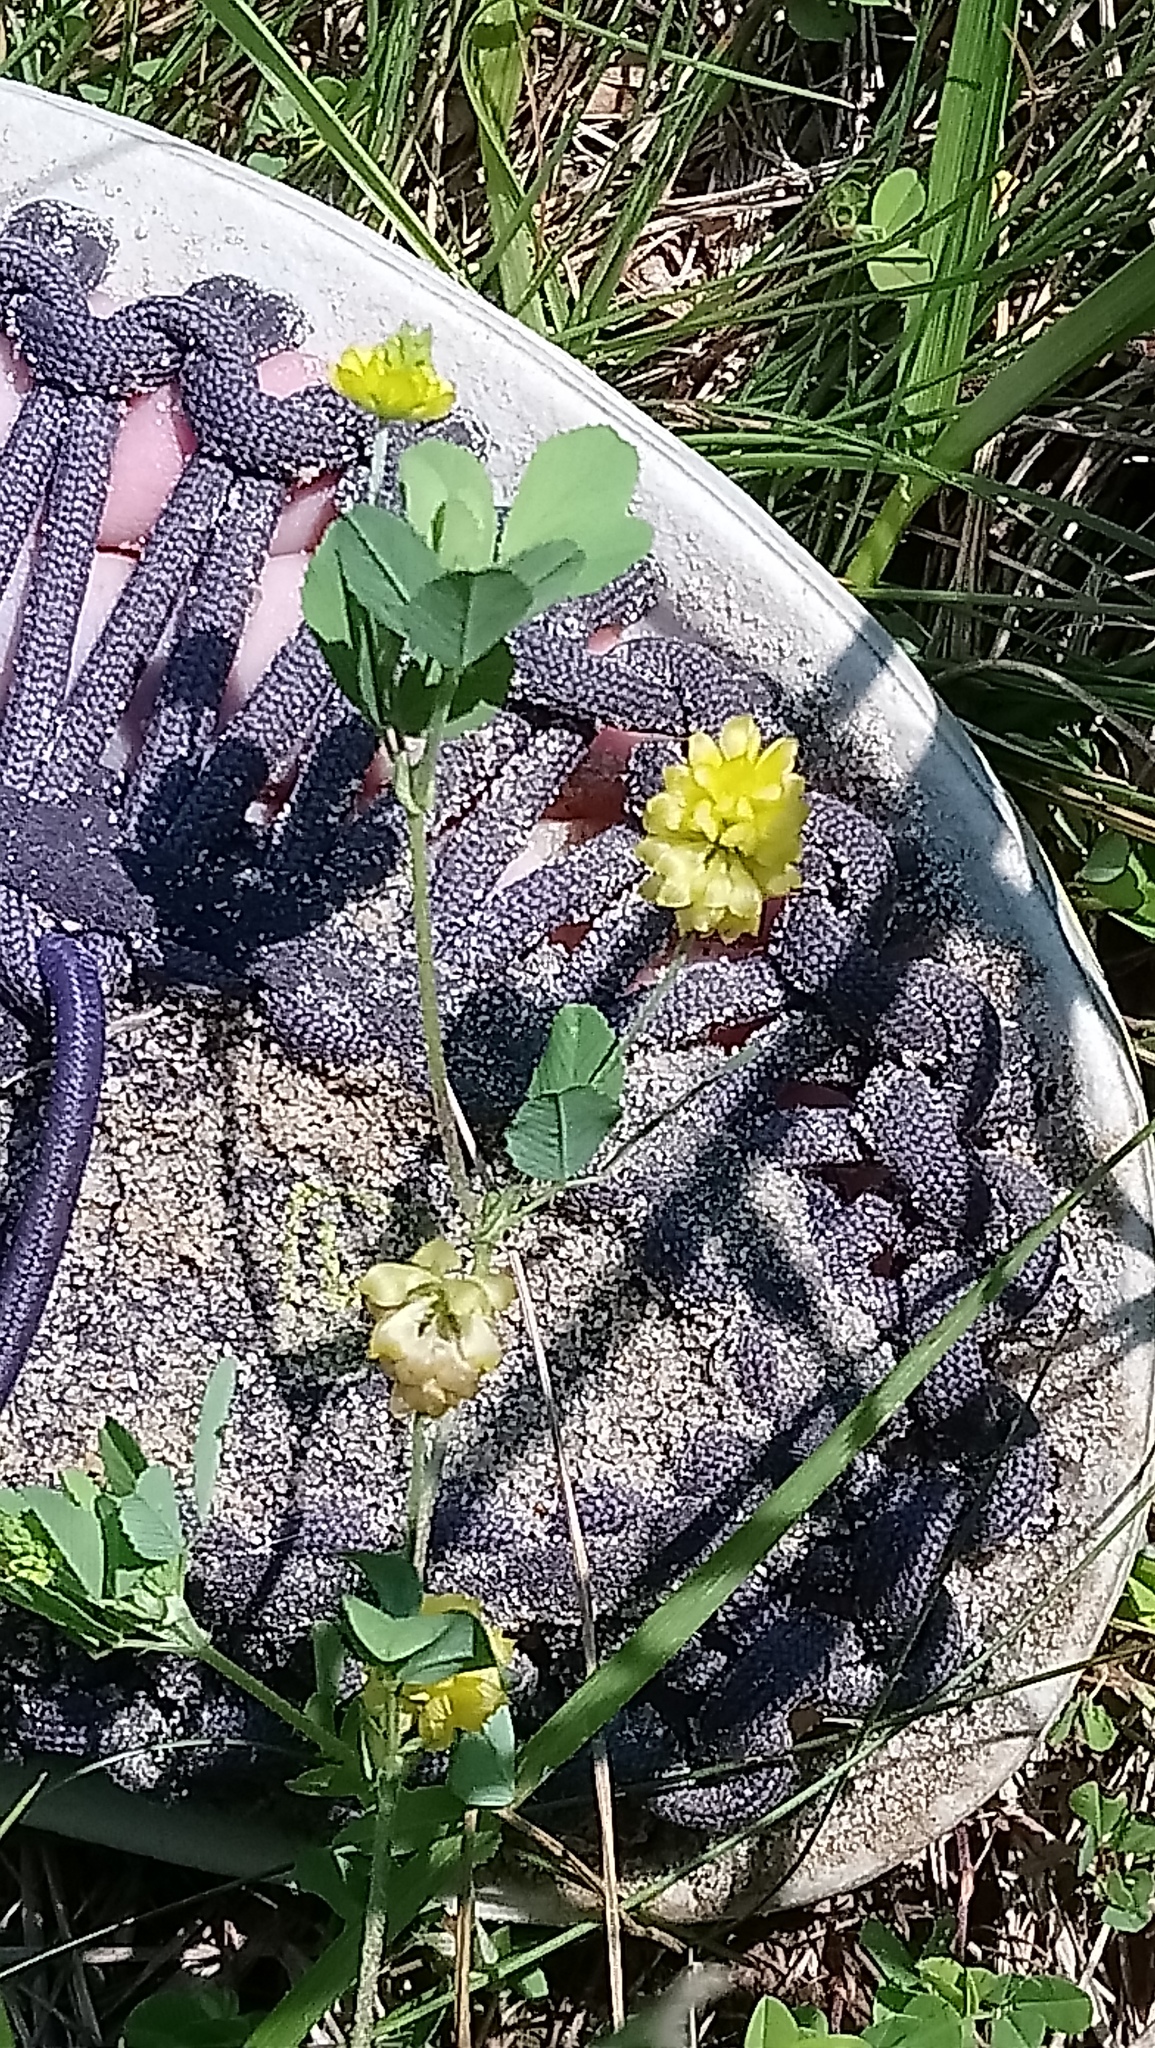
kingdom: Plantae
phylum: Tracheophyta
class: Magnoliopsida
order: Fabales
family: Fabaceae
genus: Trifolium
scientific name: Trifolium campestre
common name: Field clover
